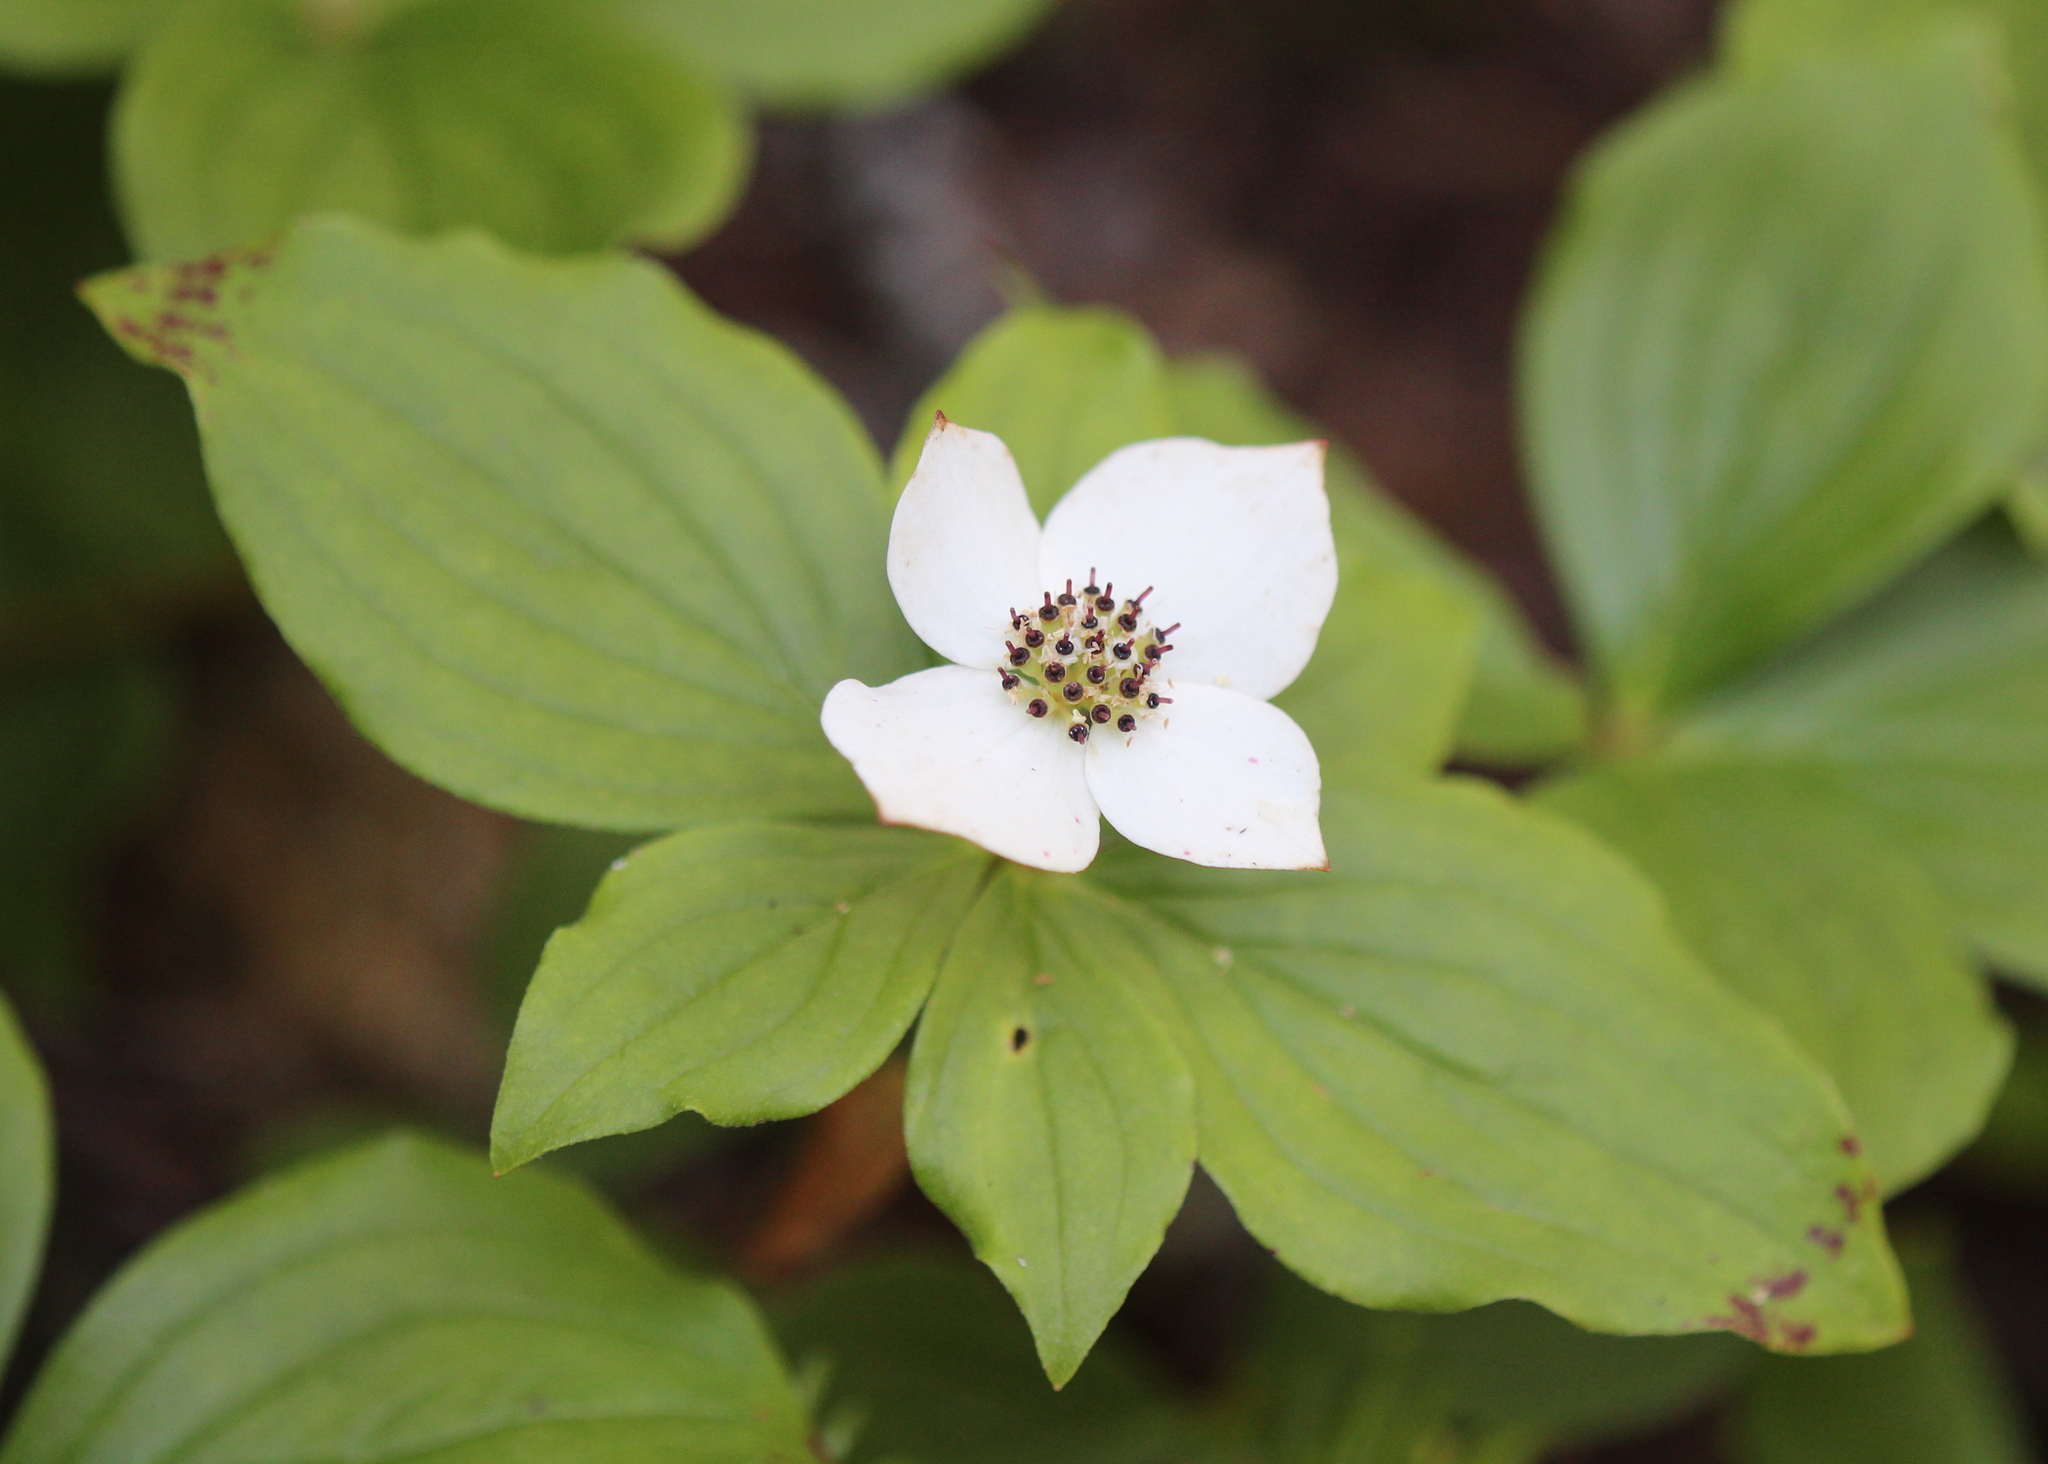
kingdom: Plantae
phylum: Tracheophyta
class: Magnoliopsida
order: Cornales
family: Cornaceae
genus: Cornus
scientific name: Cornus canadensis
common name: Creeping dogwood
